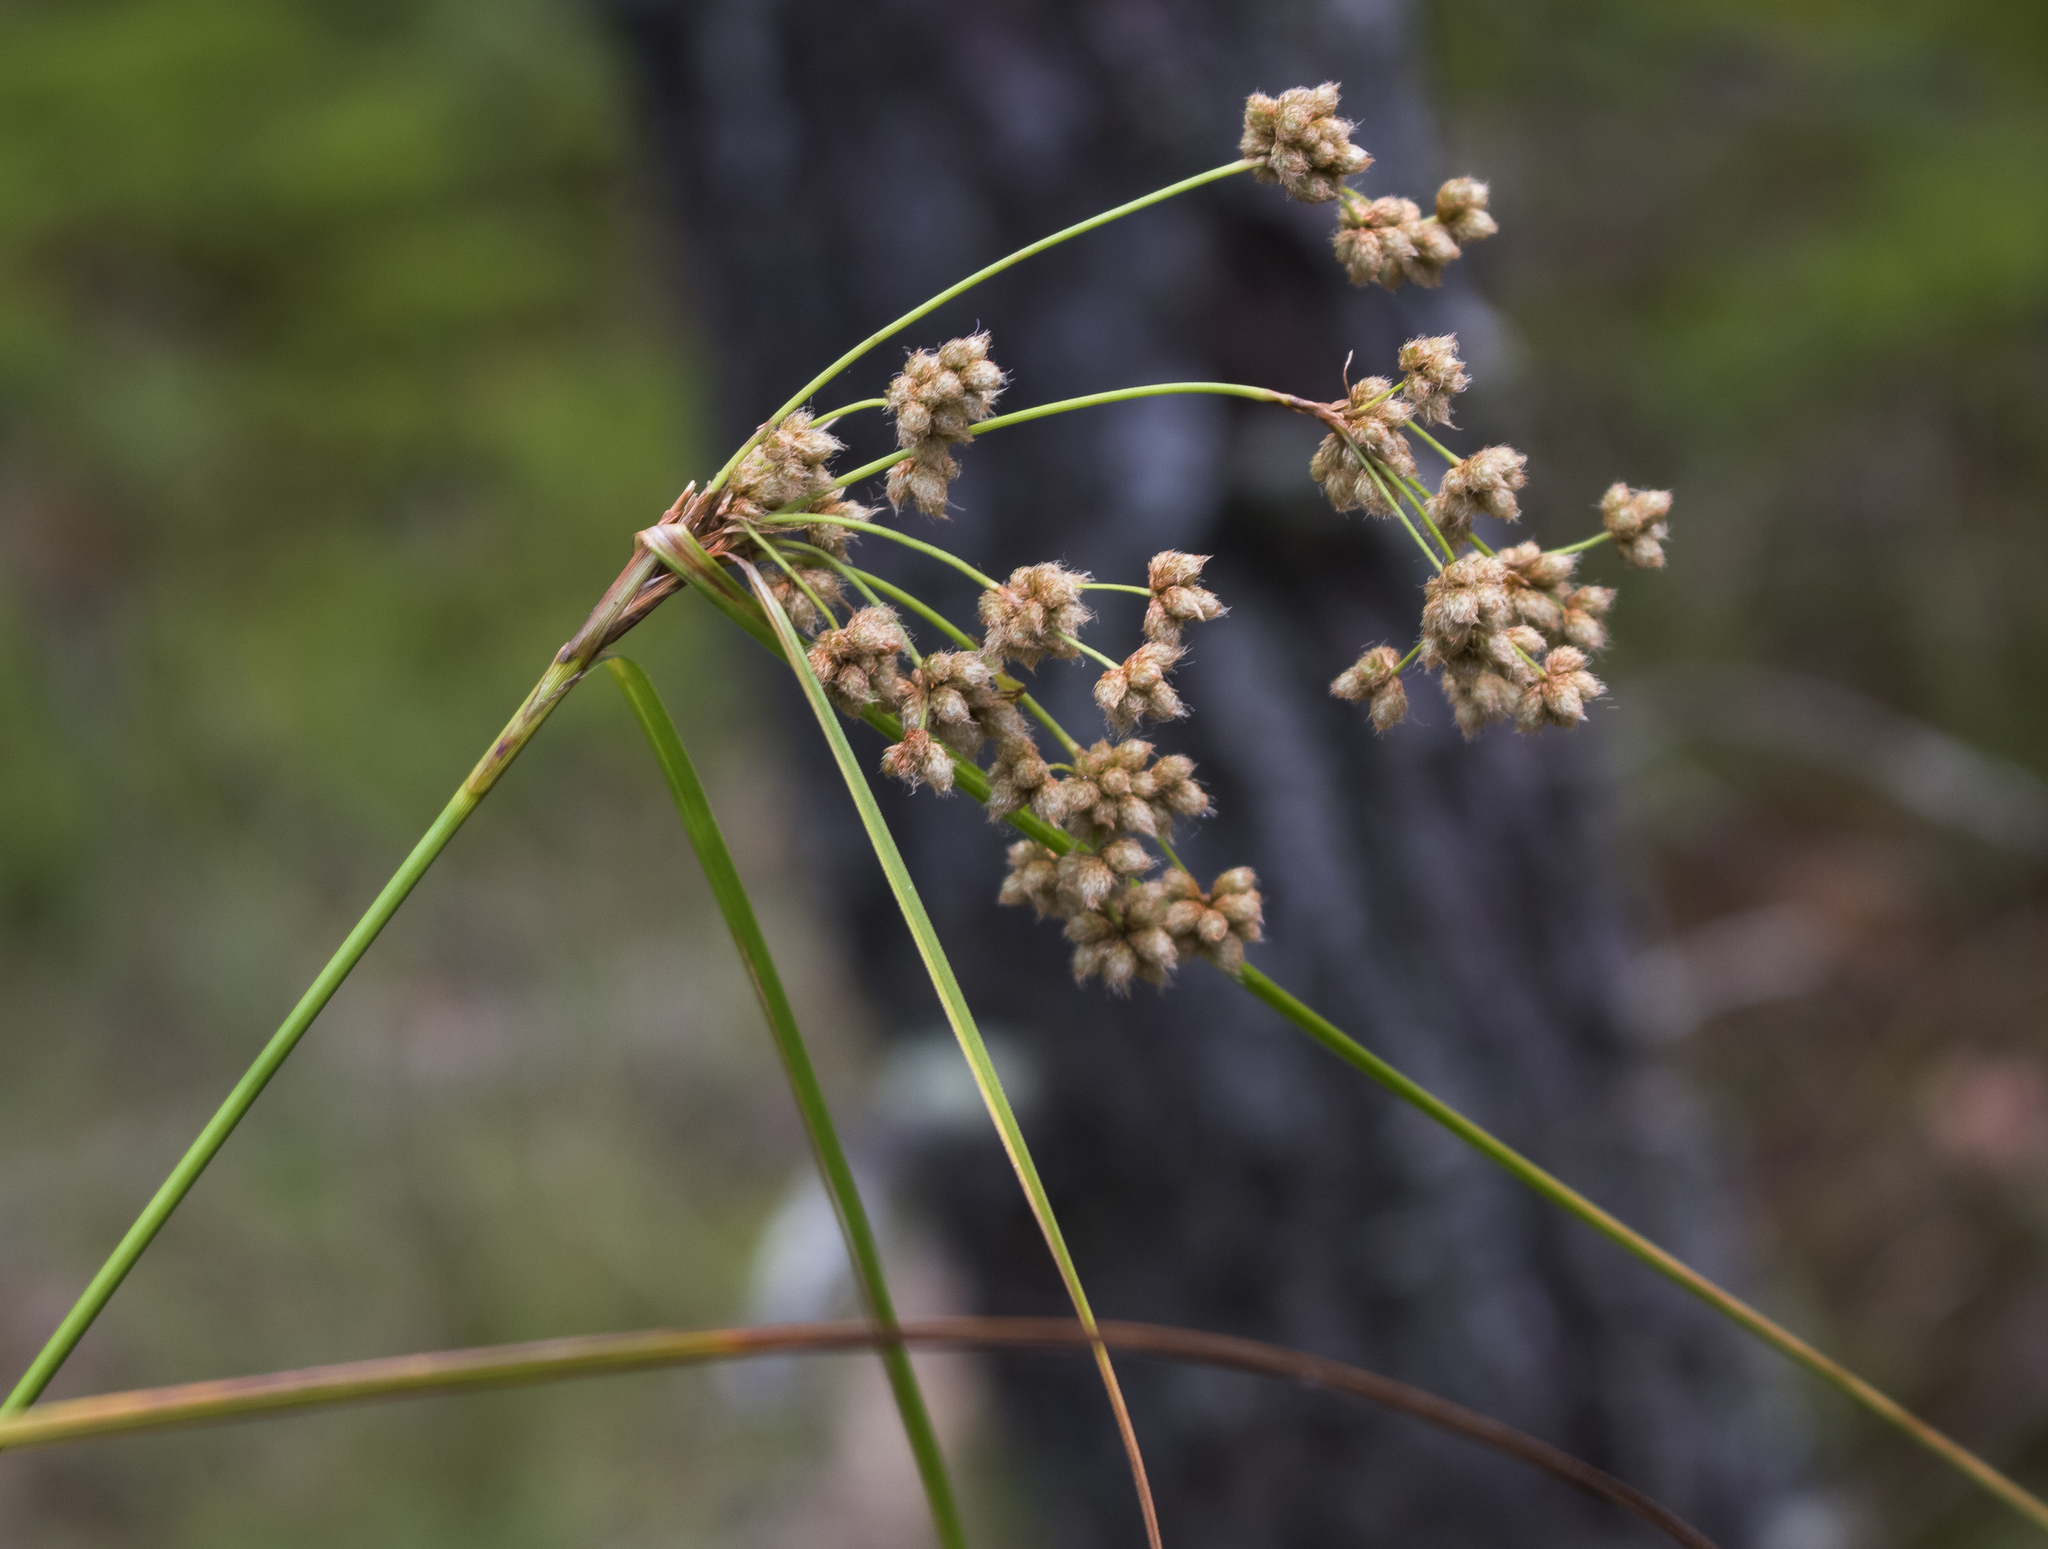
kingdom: Plantae
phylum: Tracheophyta
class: Liliopsida
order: Poales
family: Cyperaceae
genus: Scirpus
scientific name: Scirpus cyperinus
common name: Black-sheathed bulrush
